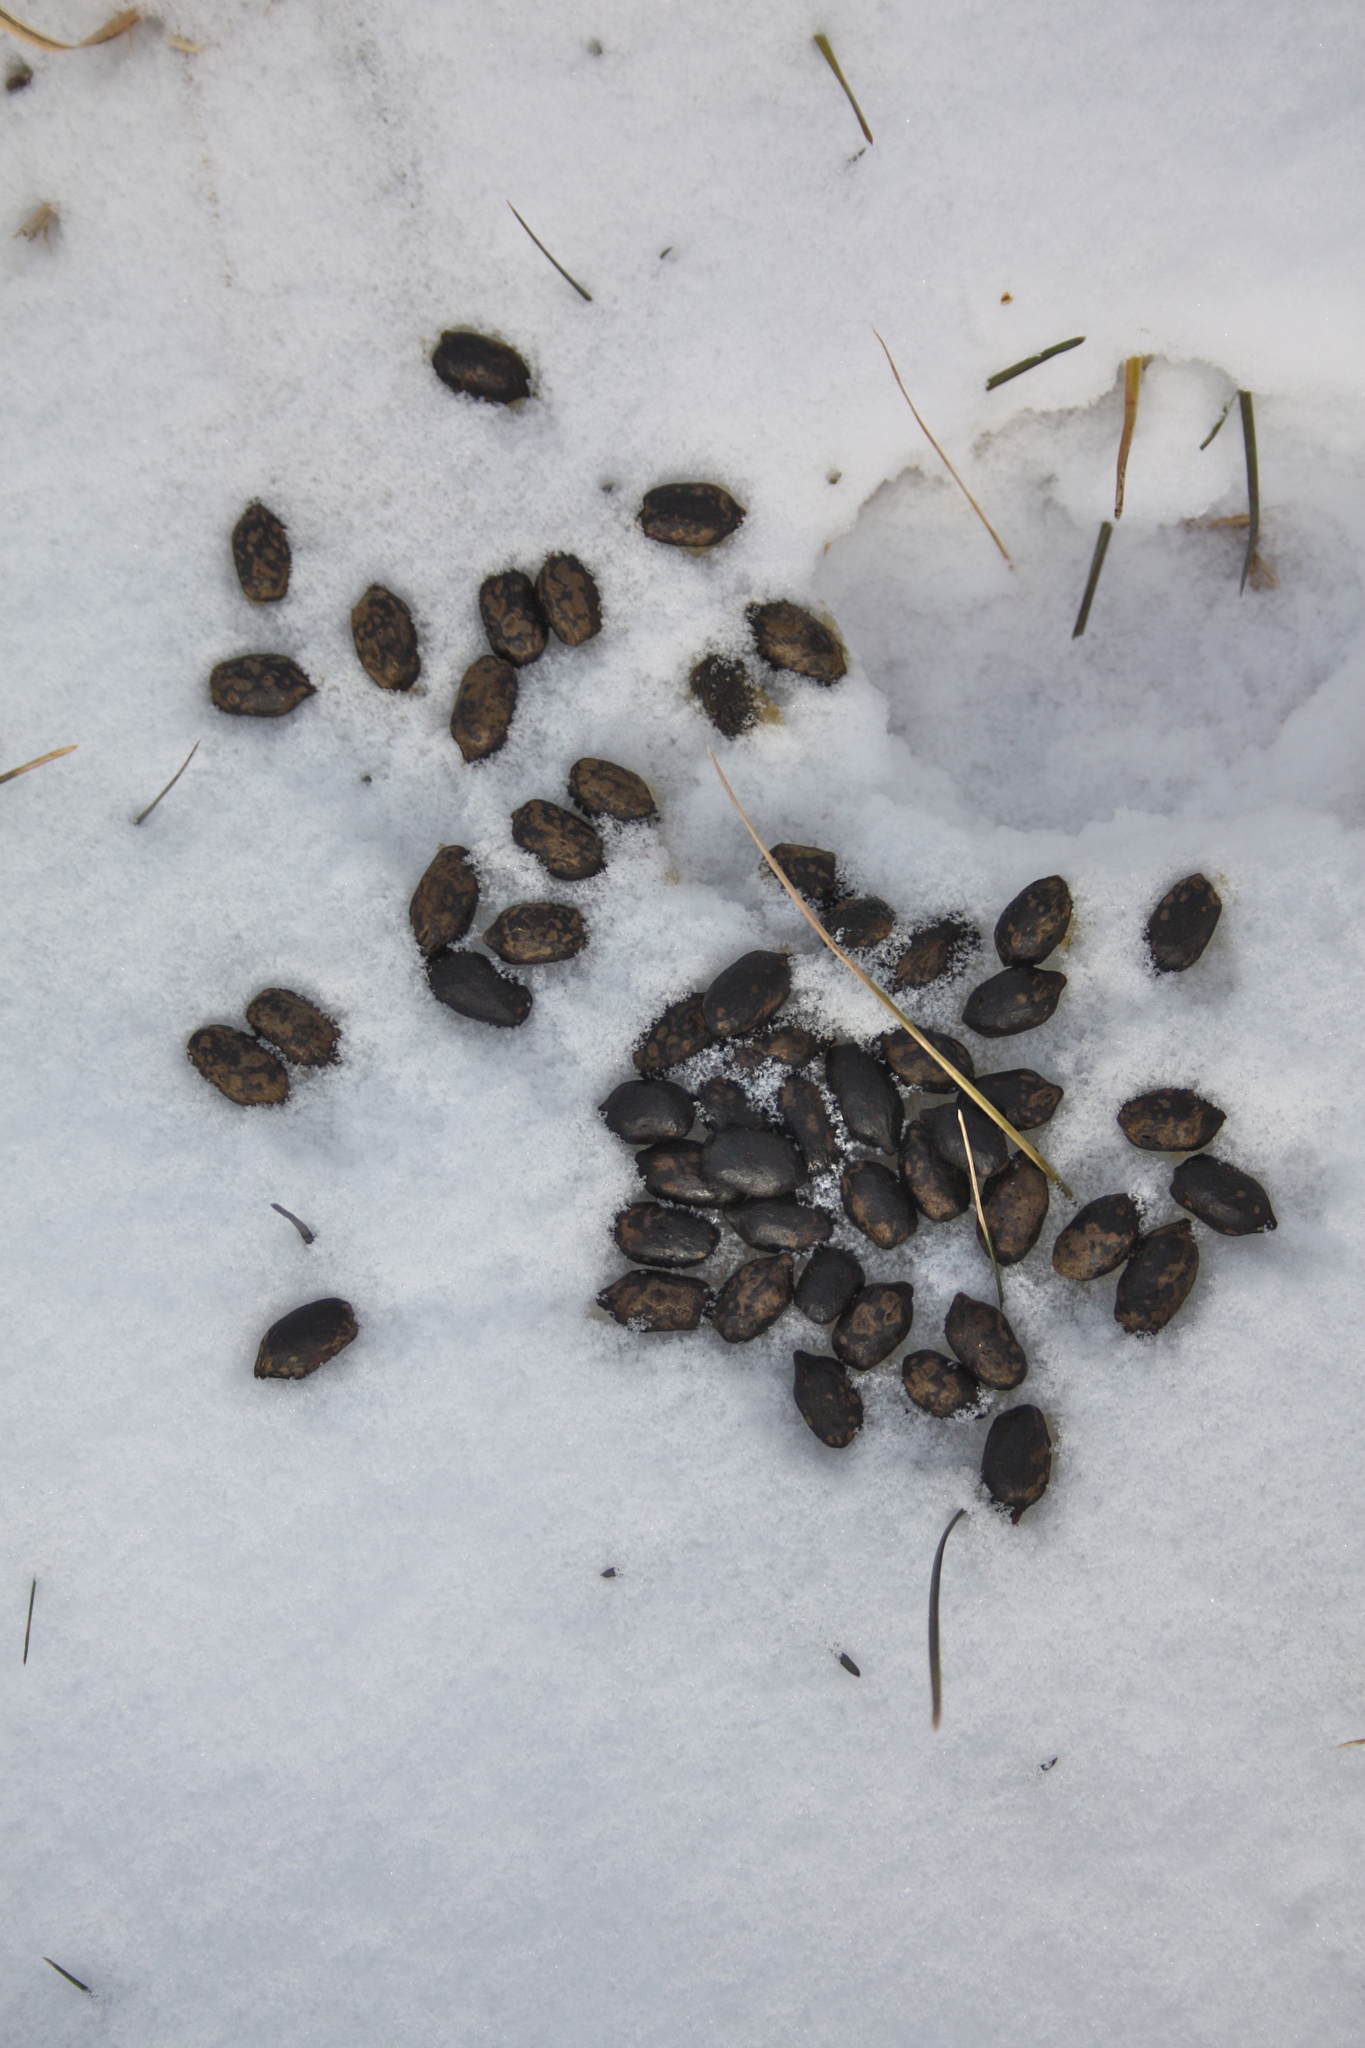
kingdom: Animalia
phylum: Chordata
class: Mammalia
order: Artiodactyla
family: Cervidae
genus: Odocoileus
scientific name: Odocoileus virginianus
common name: White-tailed deer
